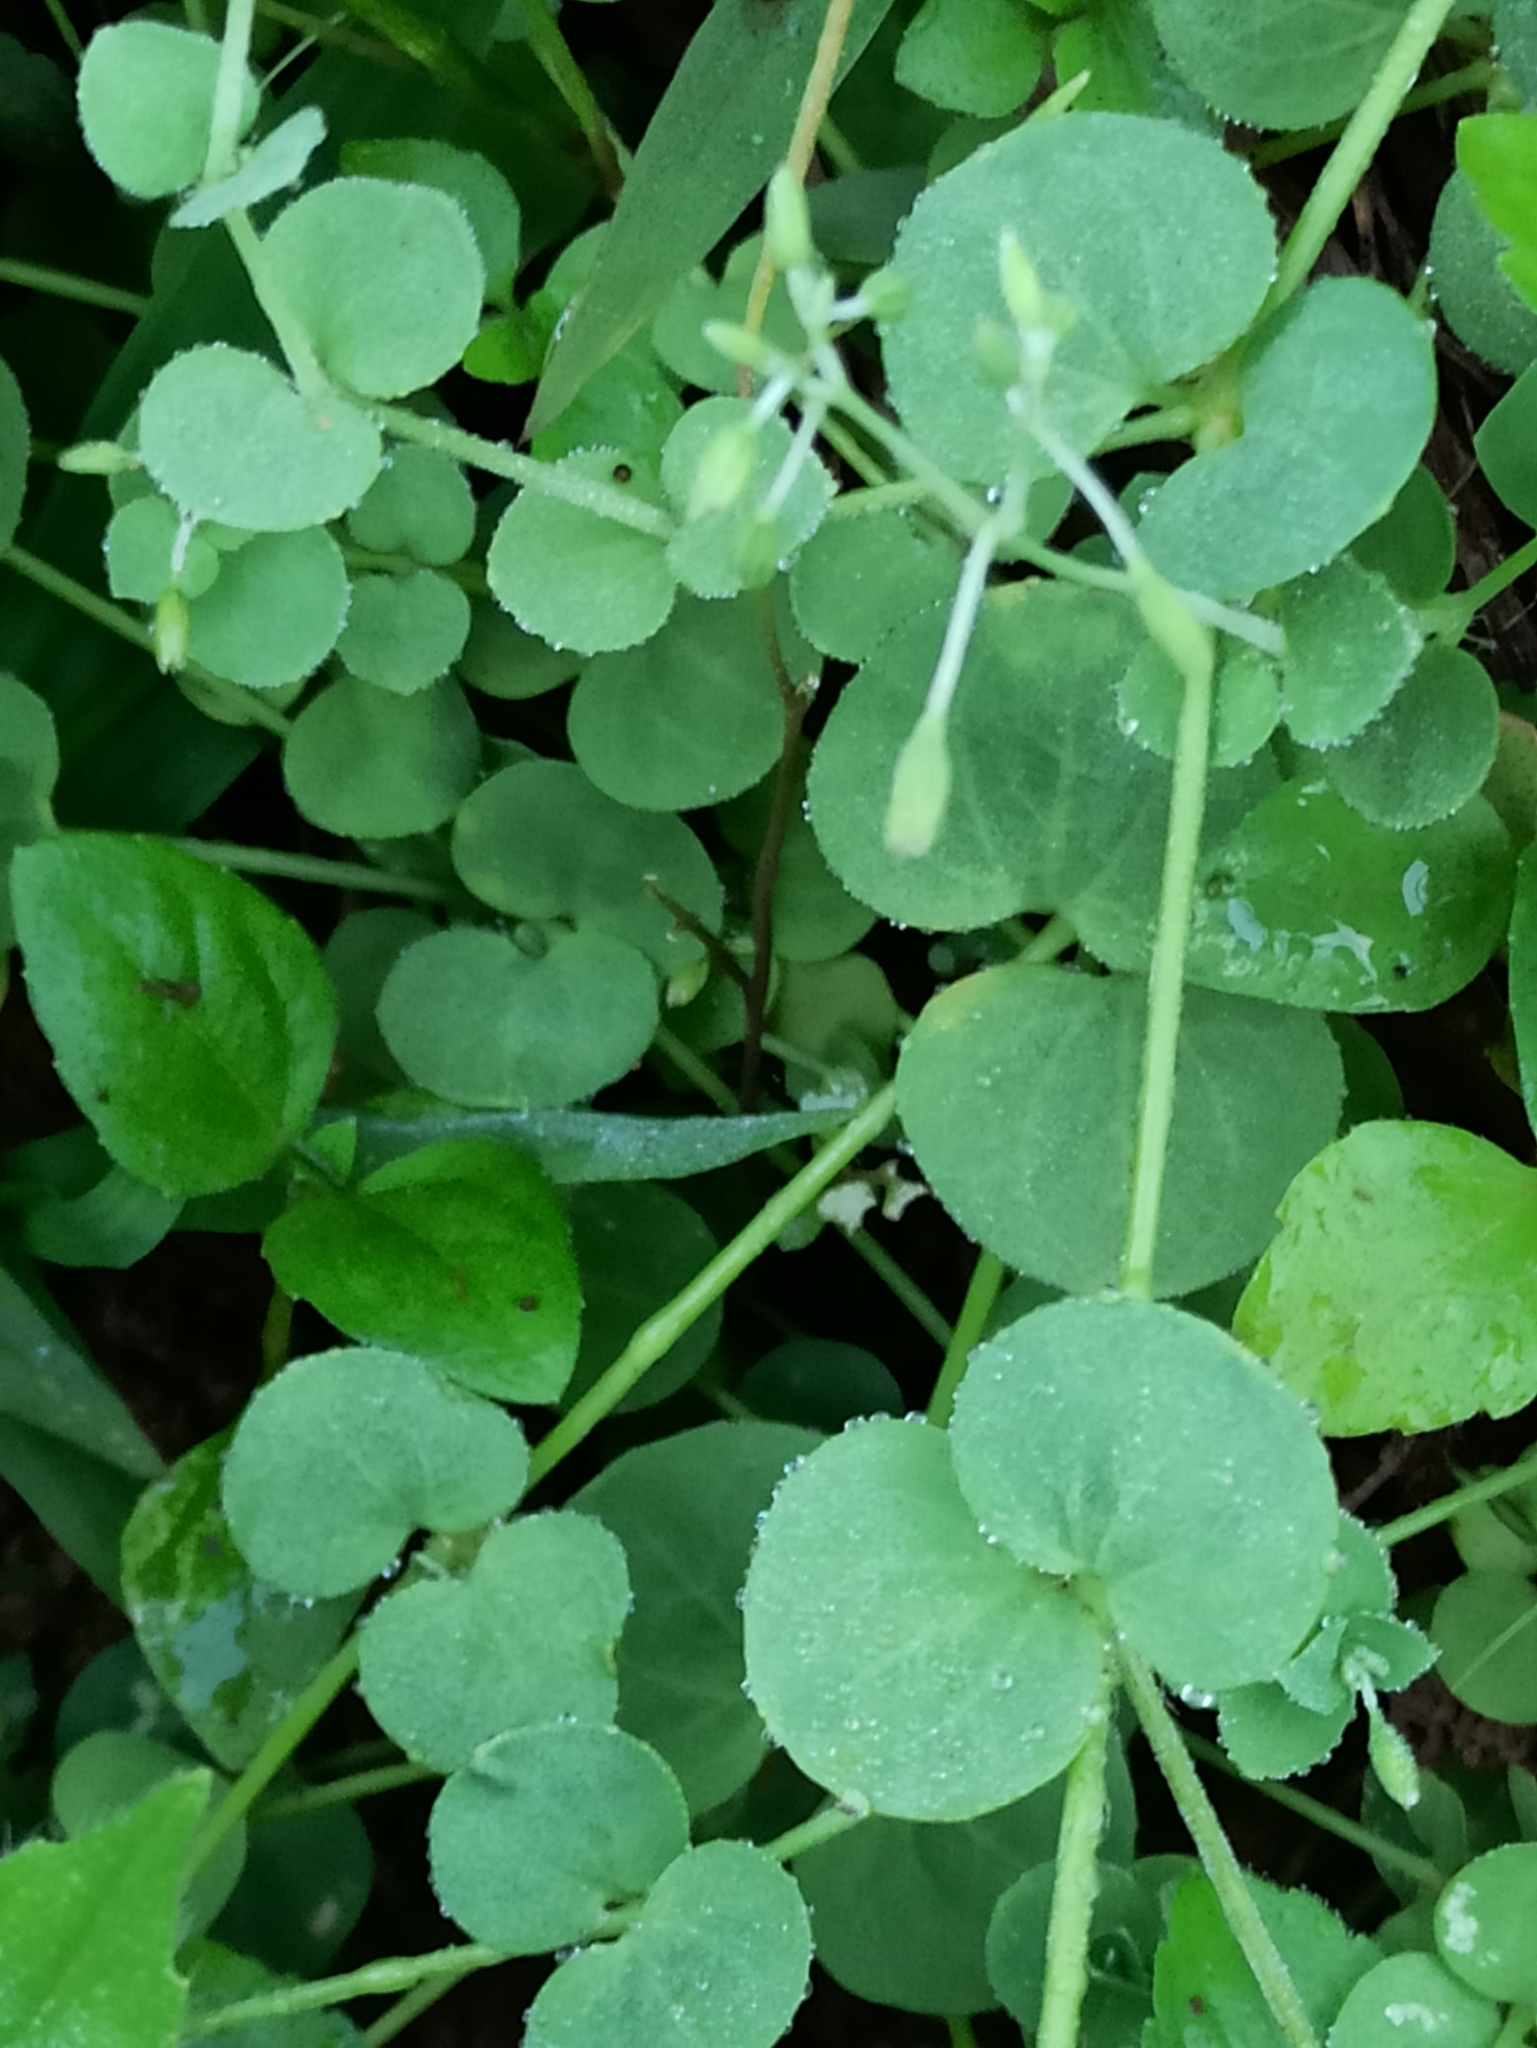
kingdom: Plantae
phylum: Tracheophyta
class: Magnoliopsida
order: Caryophyllales
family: Caryophyllaceae
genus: Drymaria
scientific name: Drymaria cordata
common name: Whitesnow
